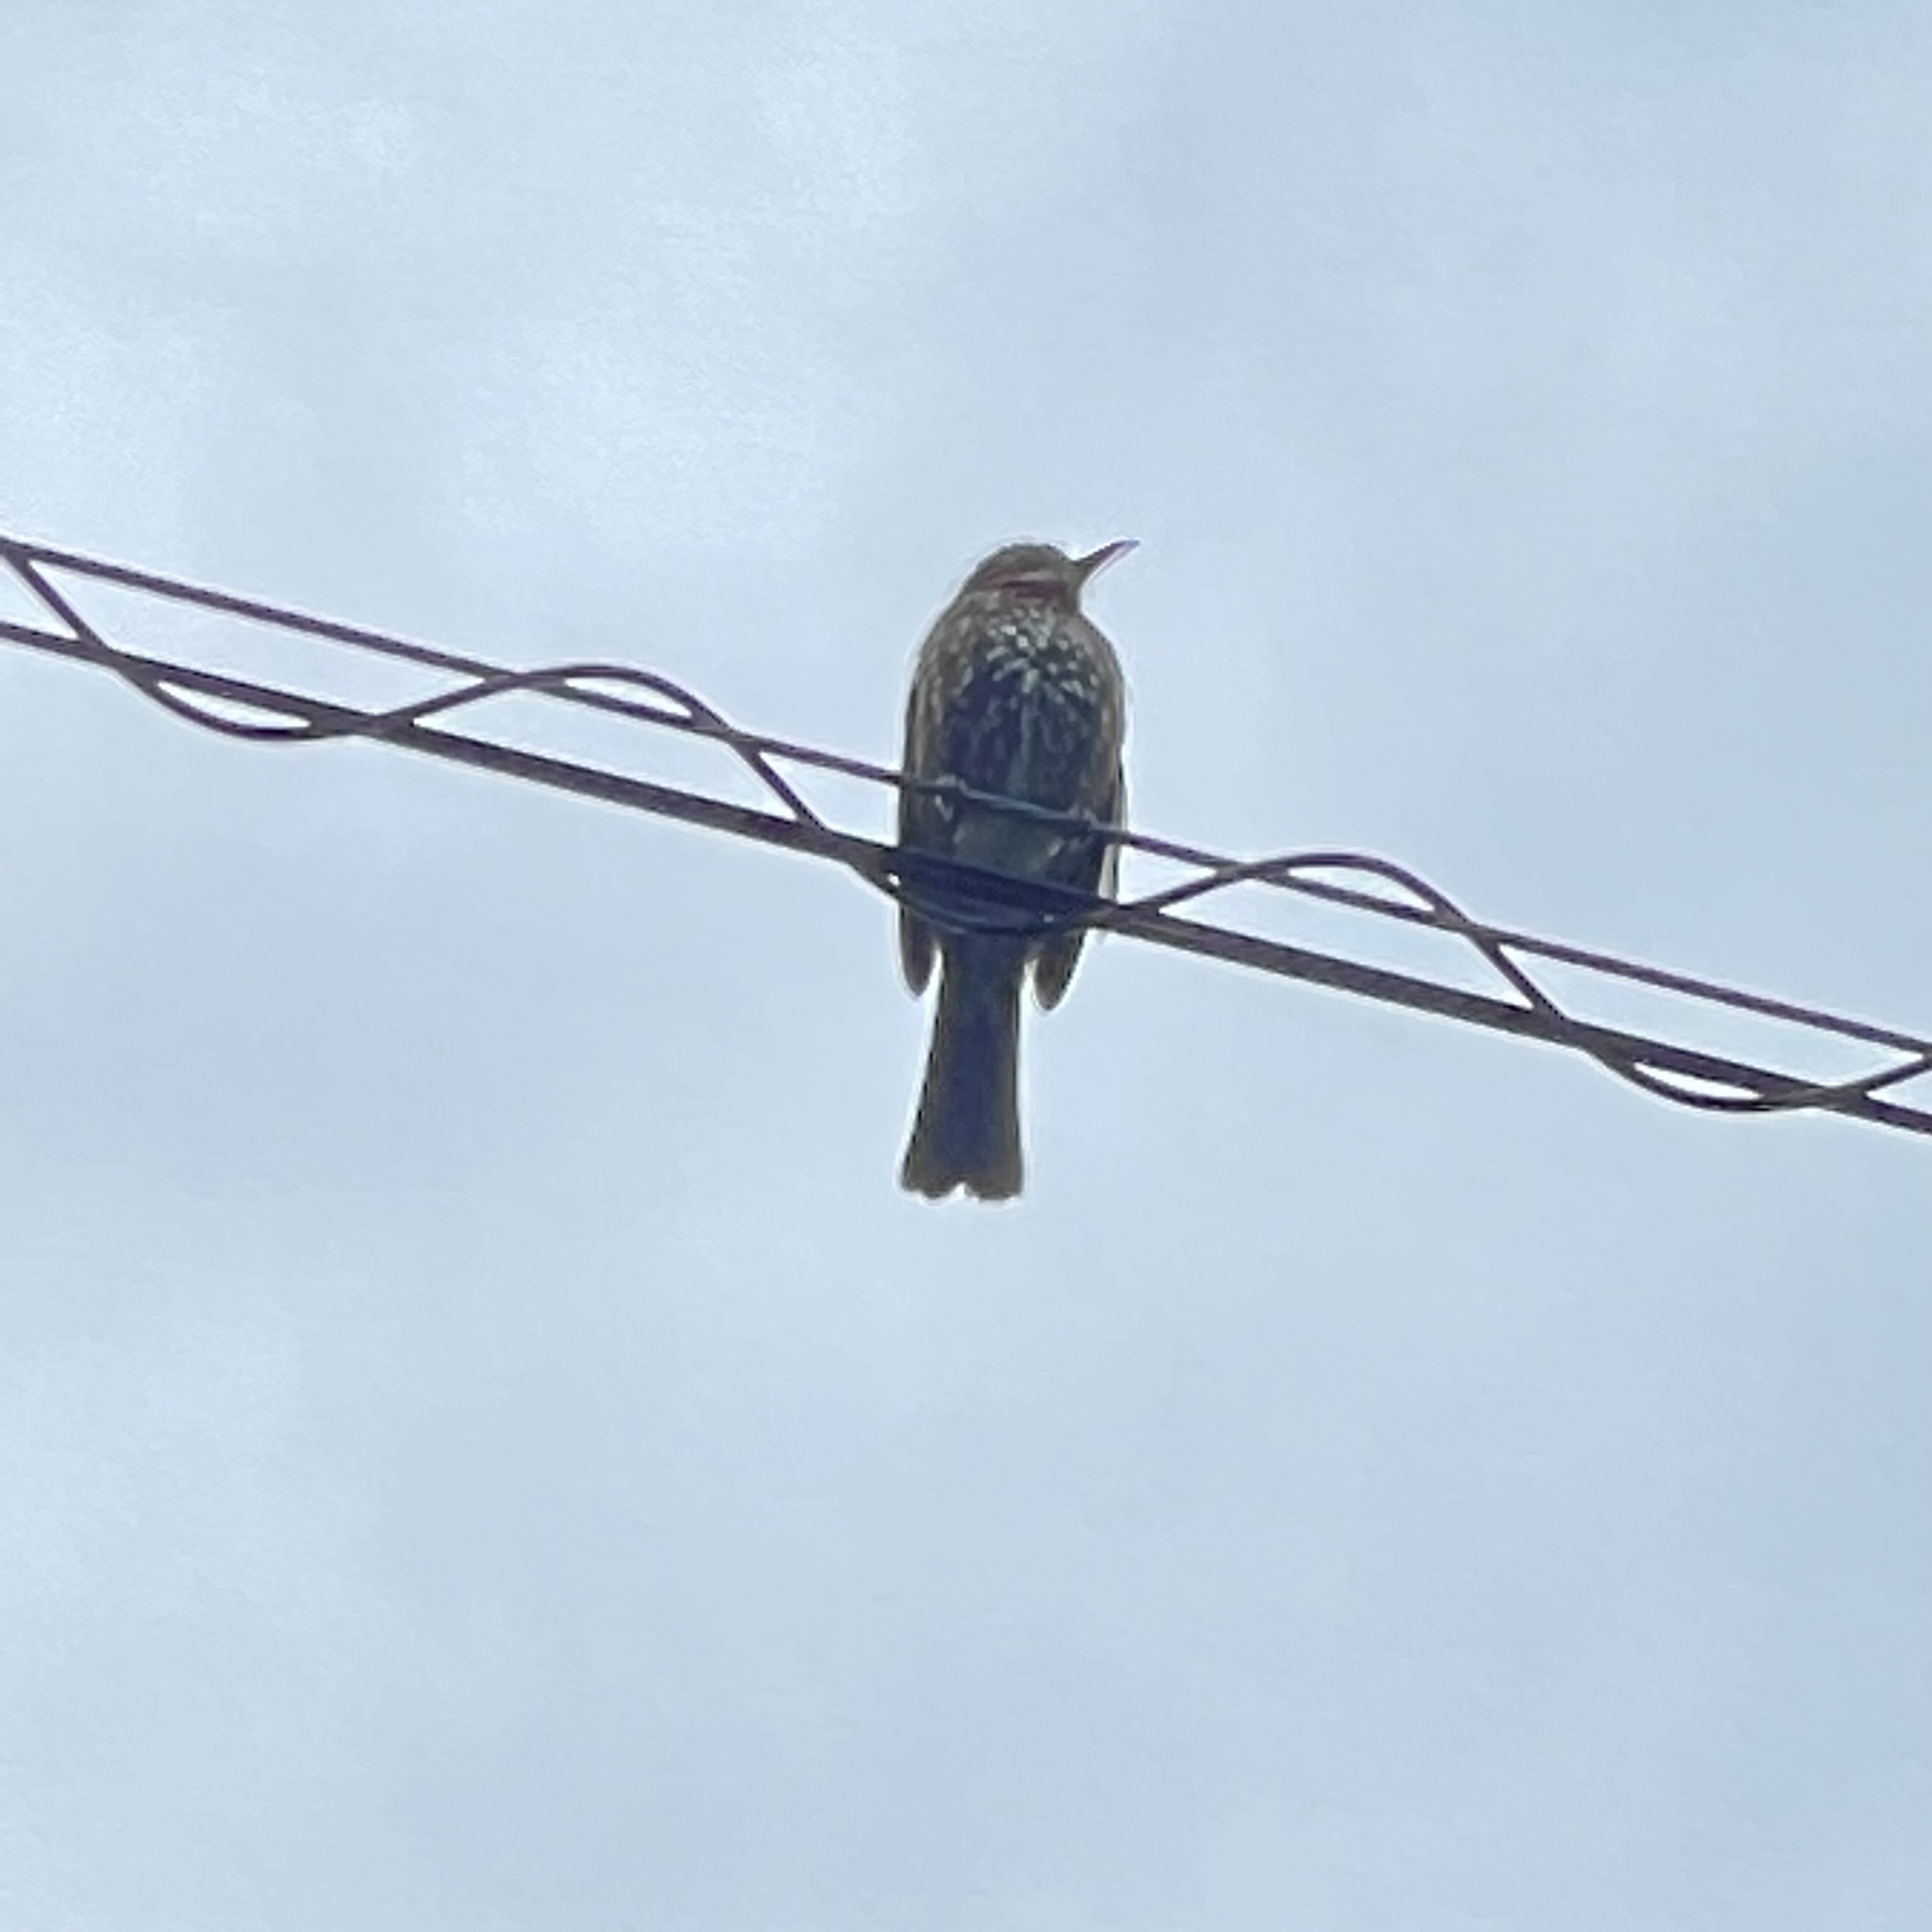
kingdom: Animalia
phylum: Chordata
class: Aves
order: Passeriformes
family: Pycnonotidae
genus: Hypsipetes
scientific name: Hypsipetes amaurotis
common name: Brown-eared bulbul
